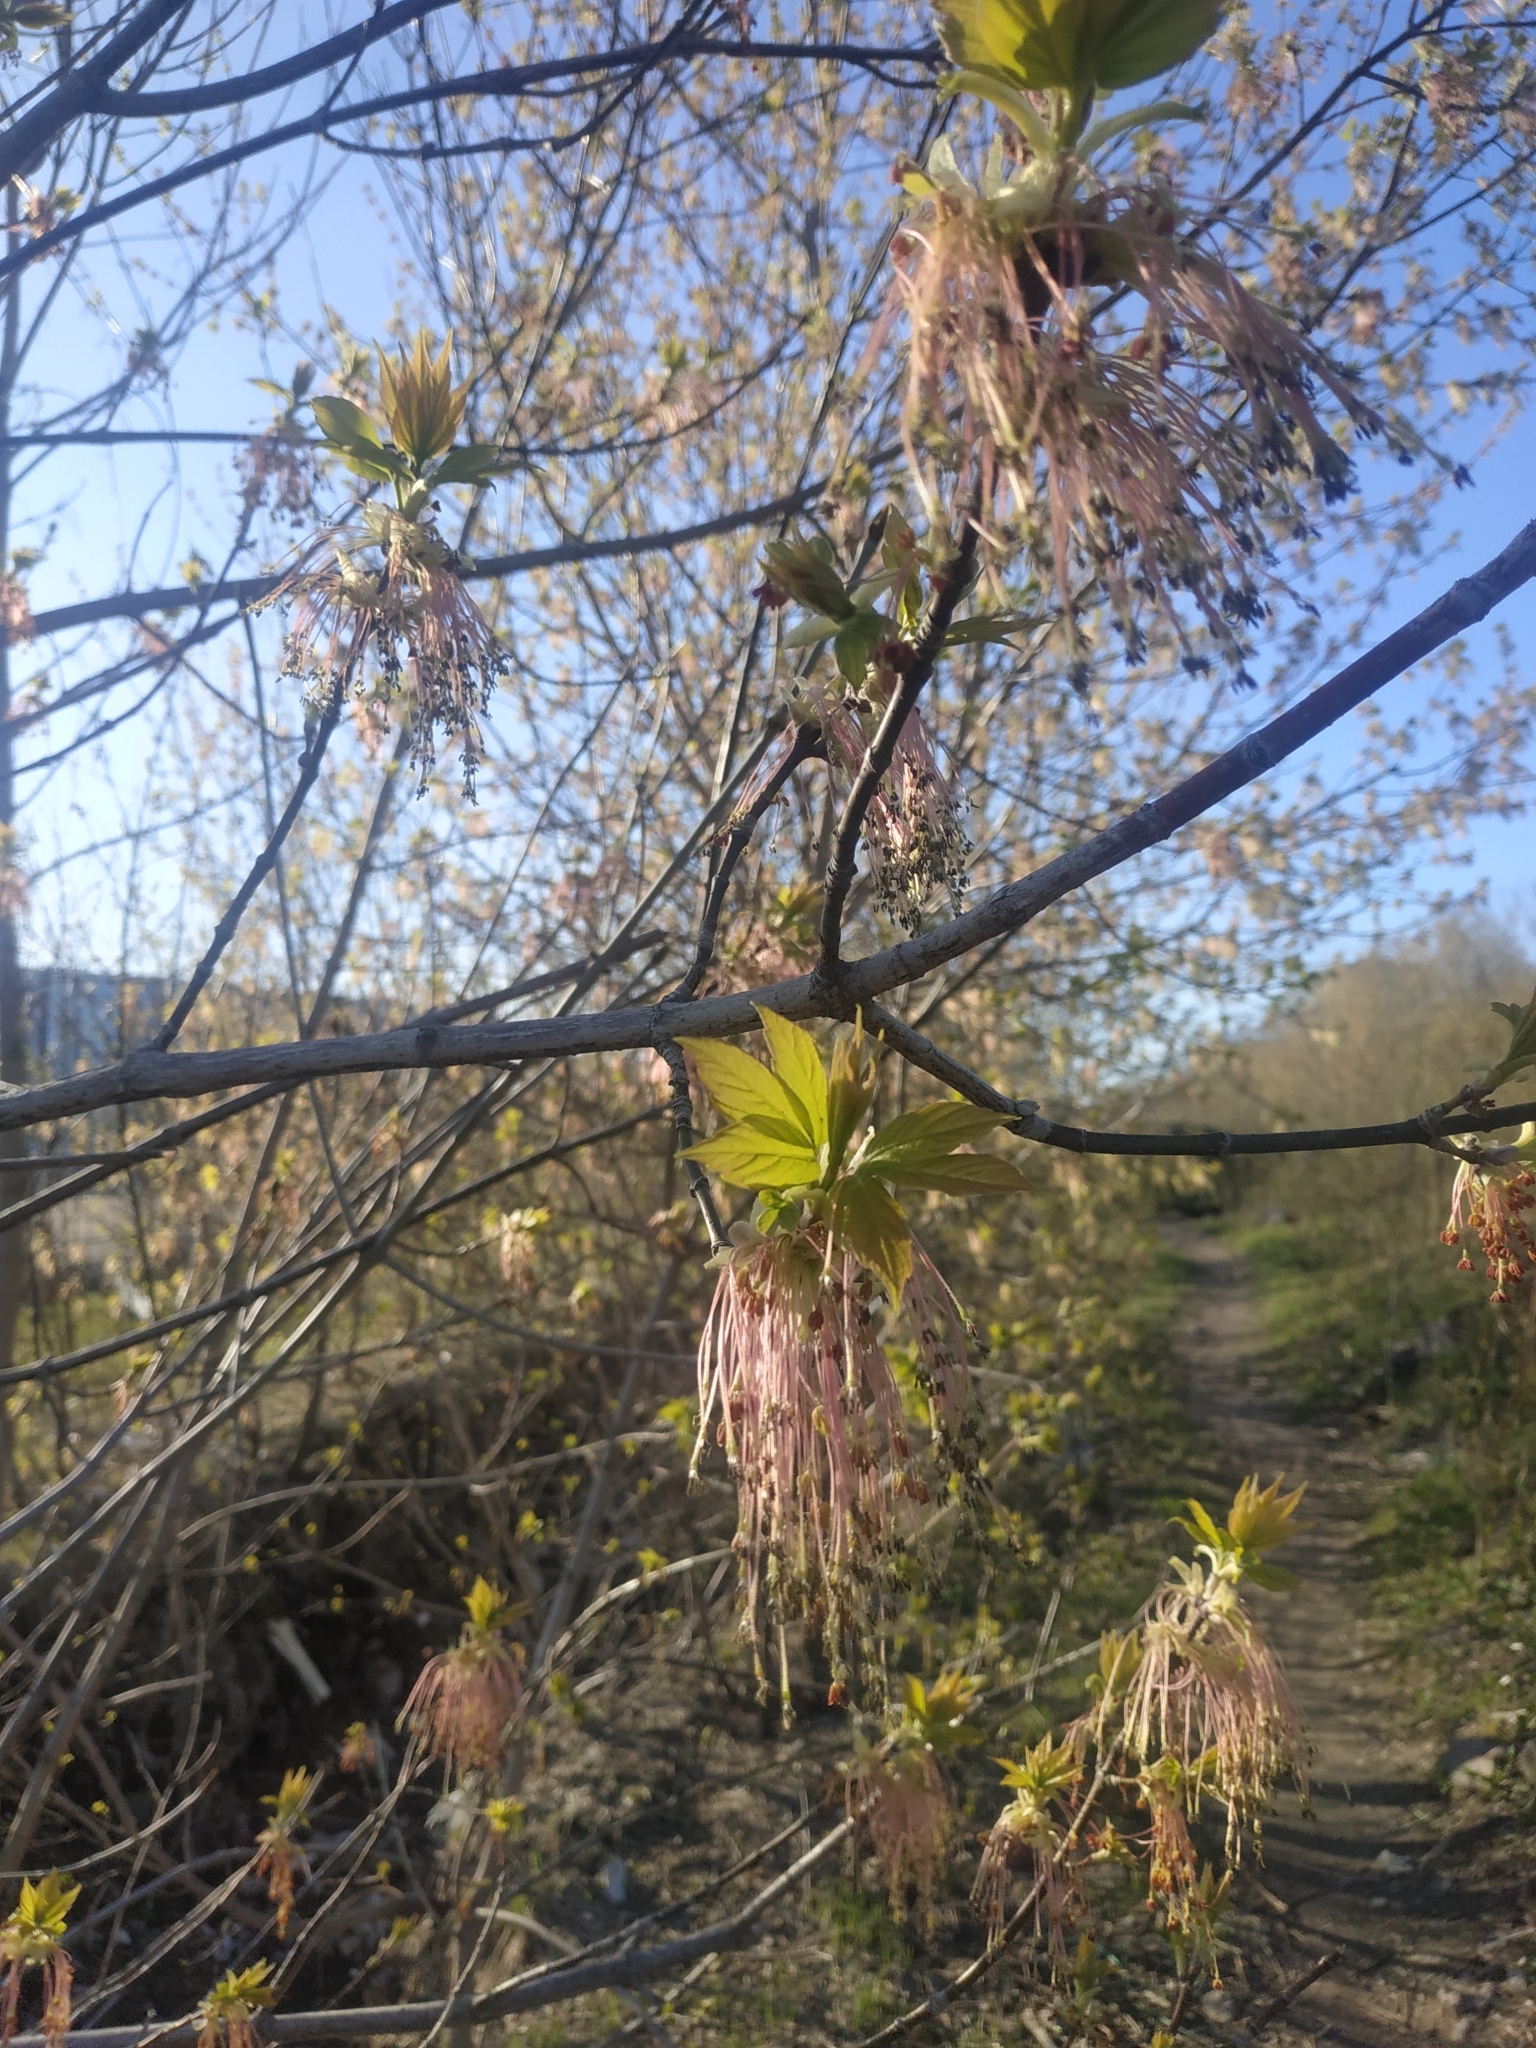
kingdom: Plantae
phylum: Tracheophyta
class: Magnoliopsida
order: Sapindales
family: Sapindaceae
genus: Acer
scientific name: Acer negundo
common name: Ashleaf maple
